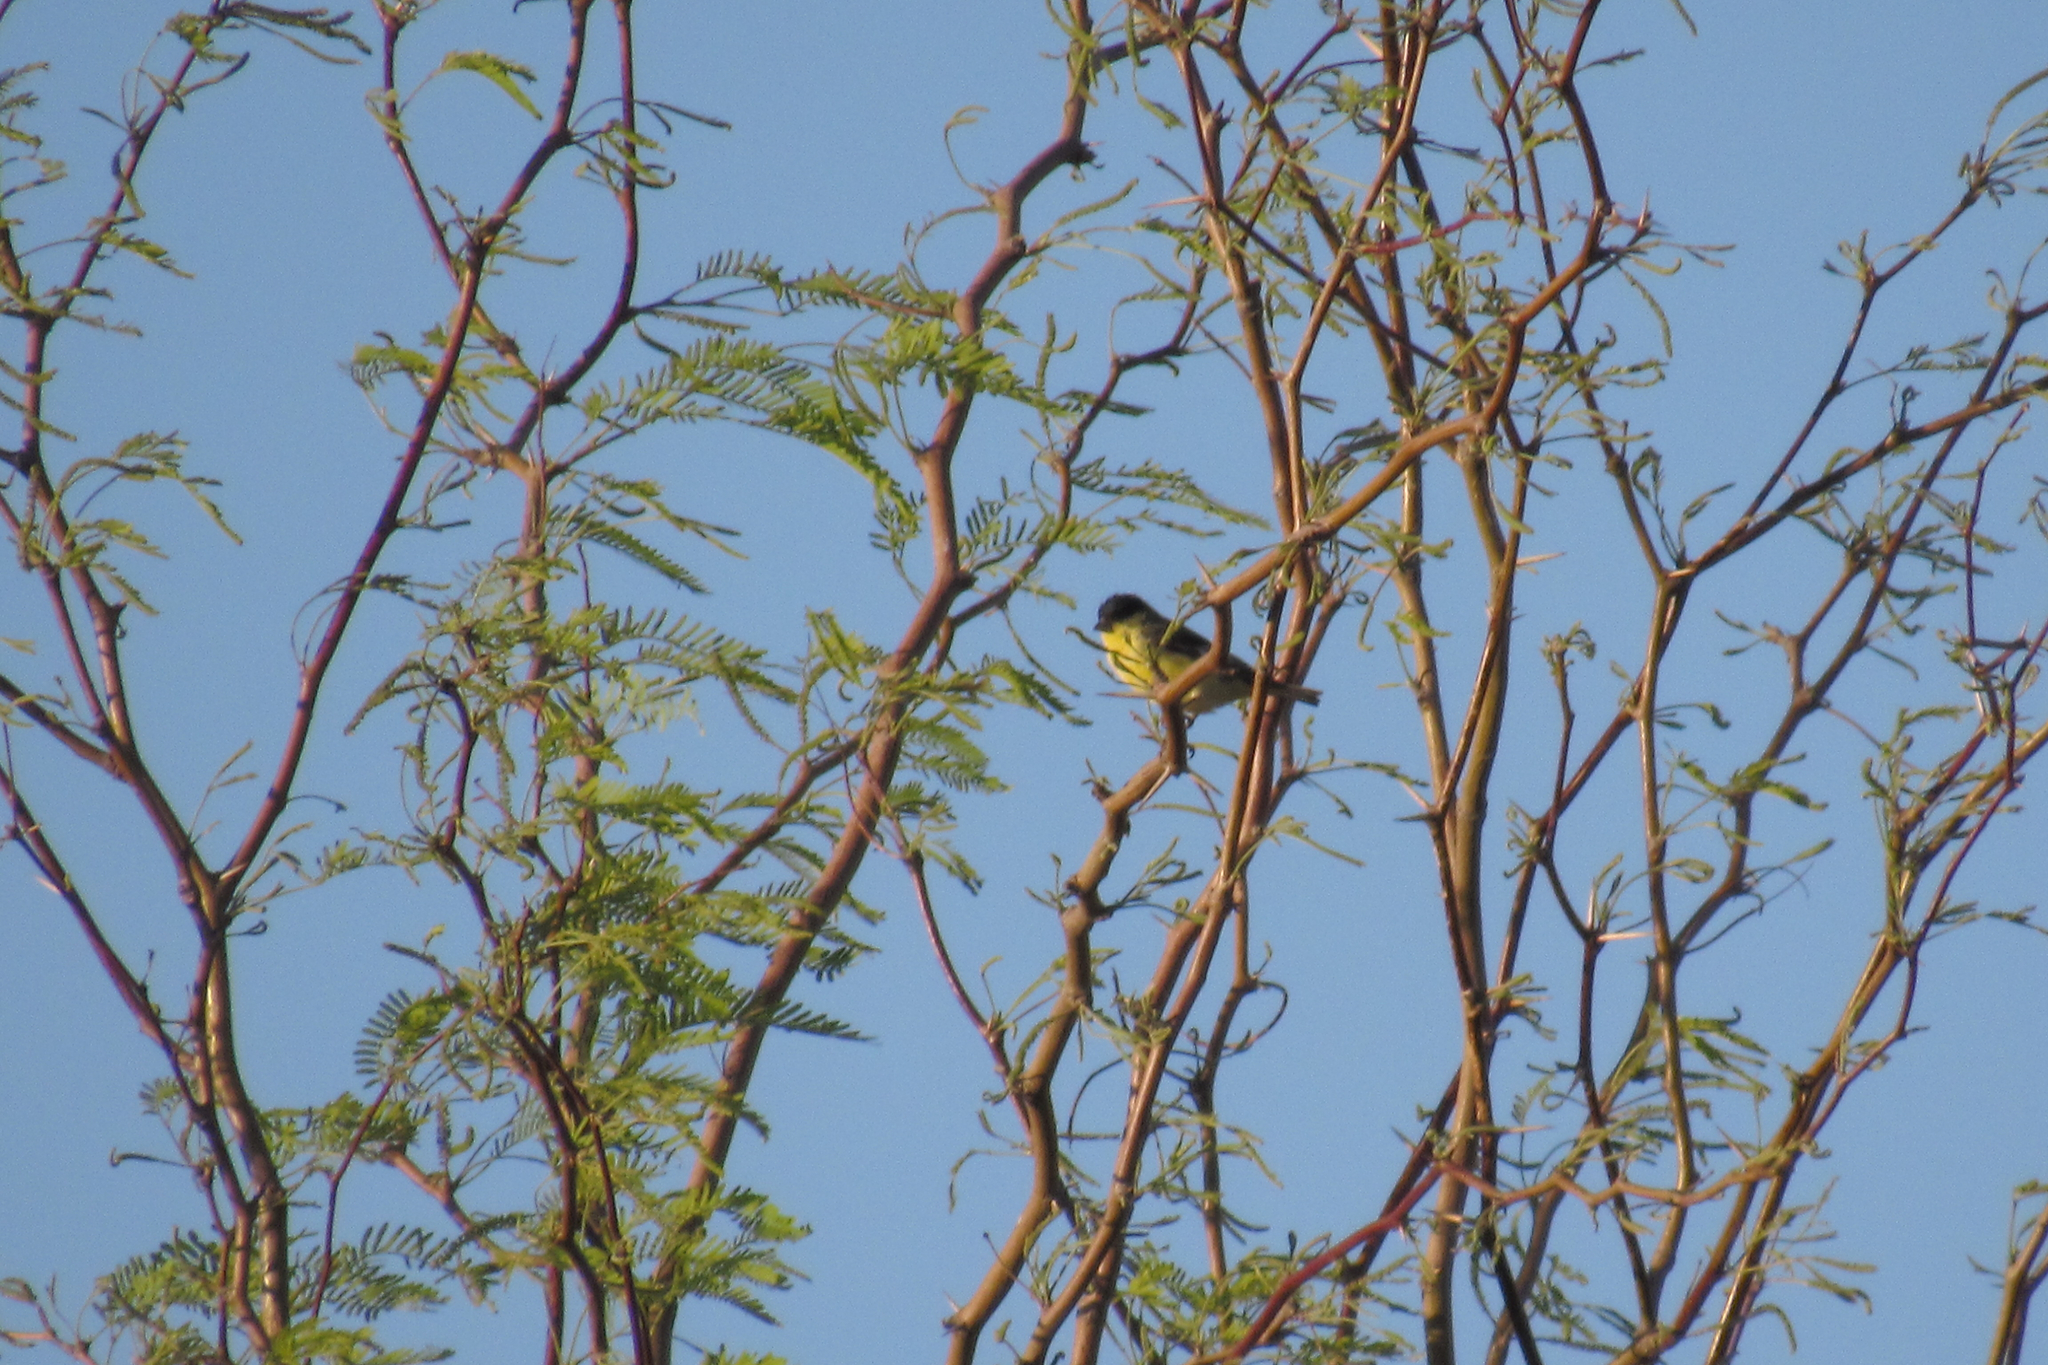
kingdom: Animalia
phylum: Chordata
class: Aves
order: Passeriformes
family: Fringillidae
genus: Spinus
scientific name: Spinus psaltria
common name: Lesser goldfinch
